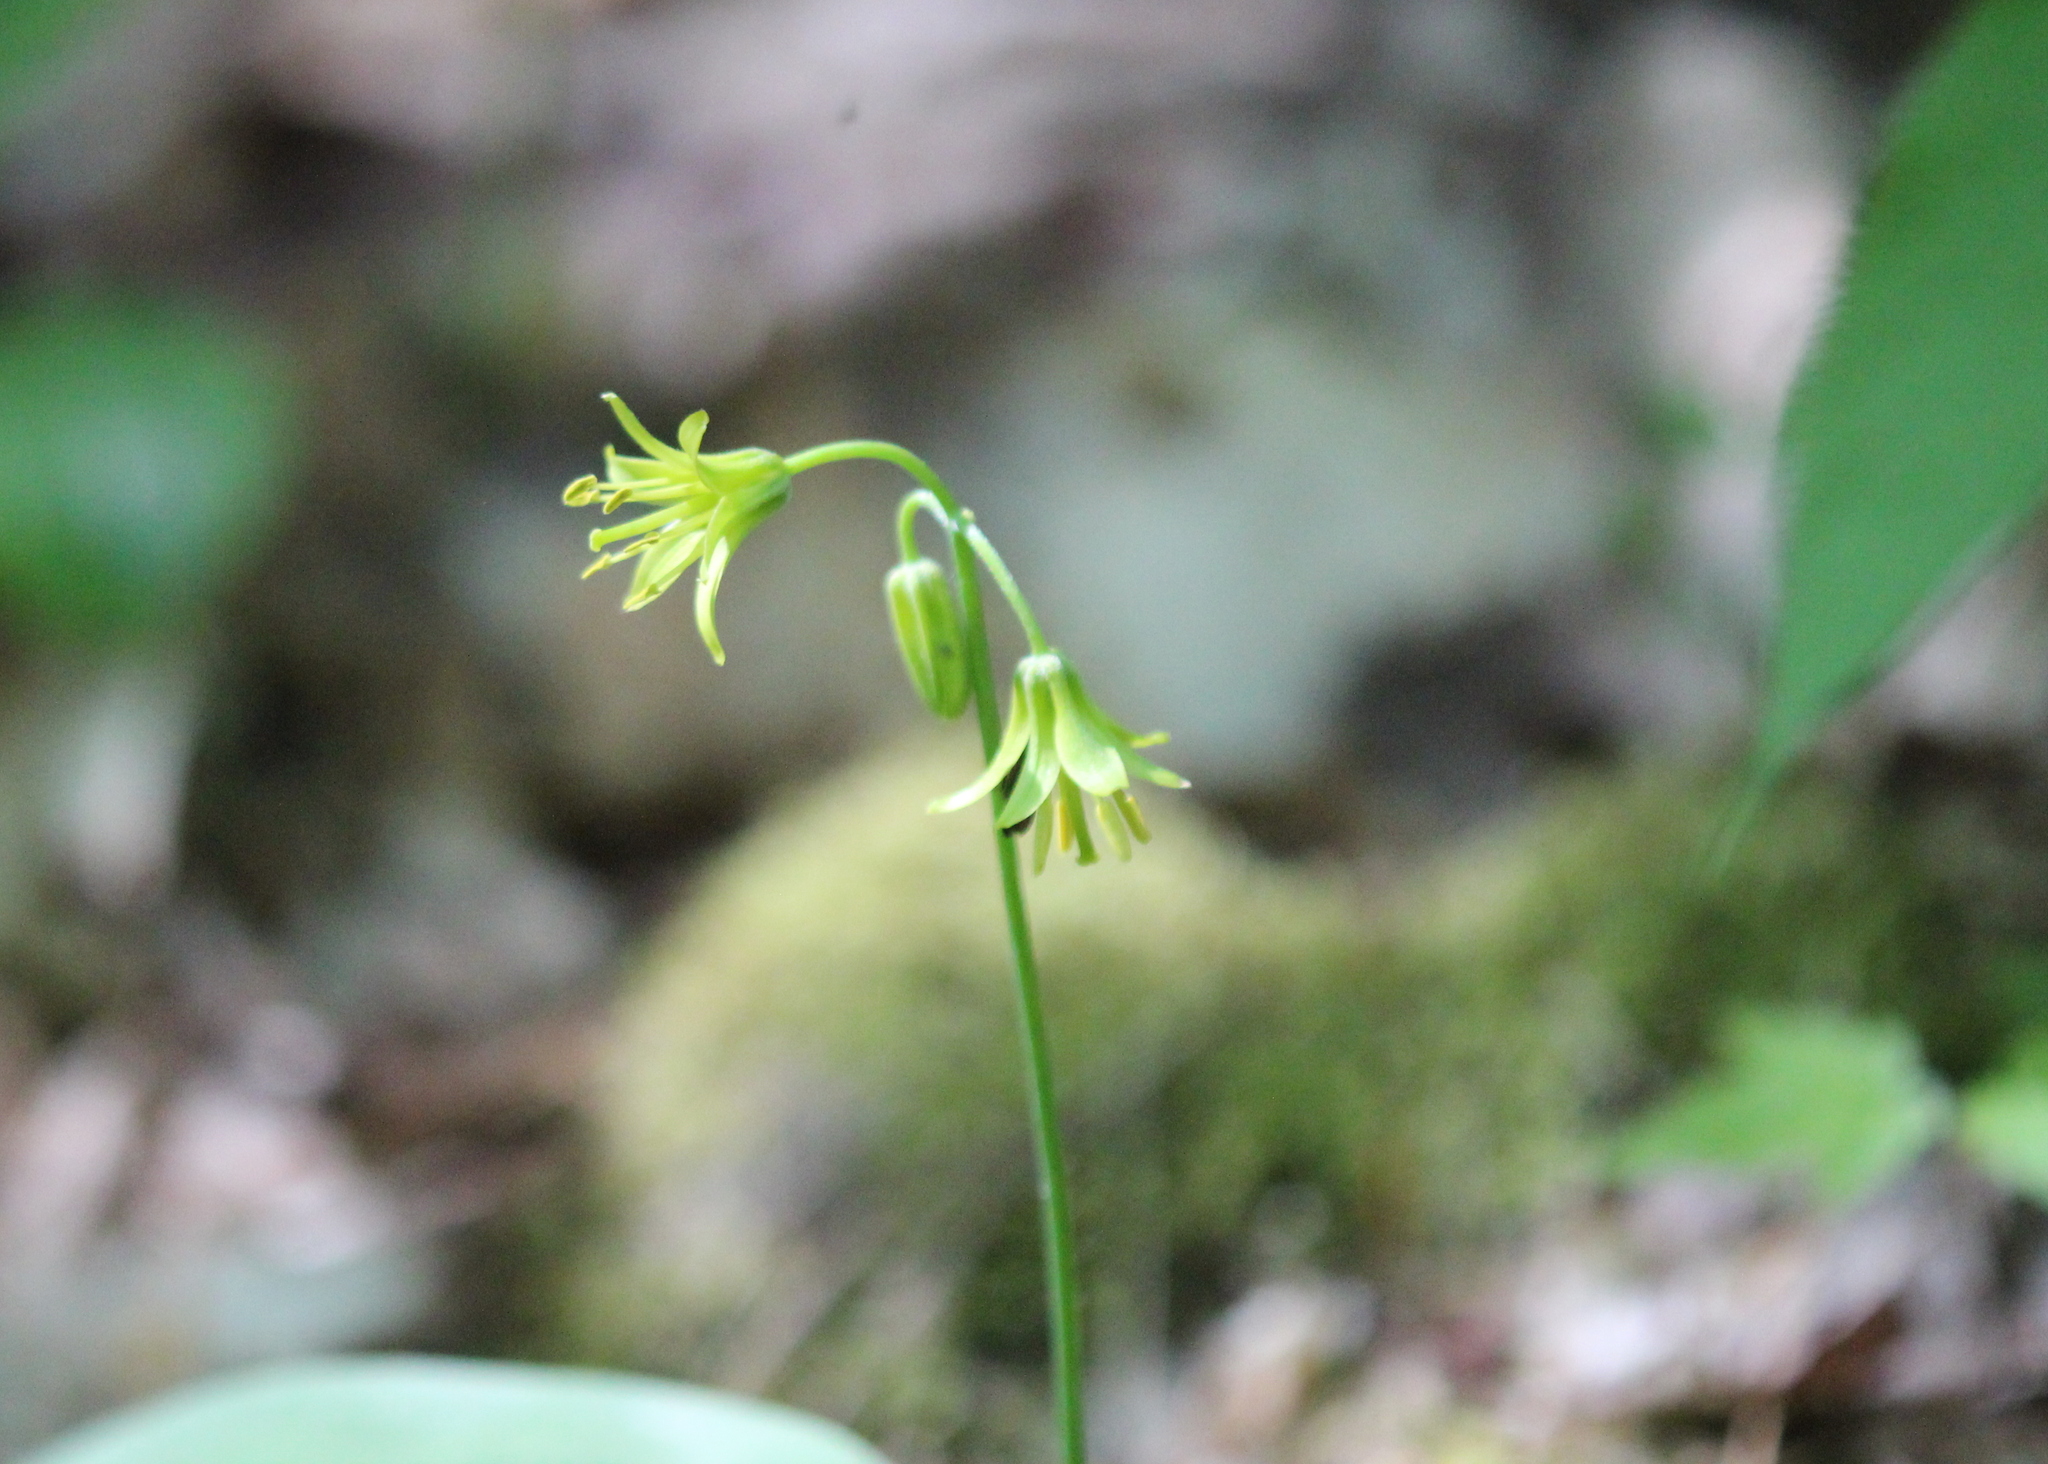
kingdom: Plantae
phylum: Tracheophyta
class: Liliopsida
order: Liliales
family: Liliaceae
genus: Clintonia
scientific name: Clintonia borealis
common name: Yellow clintonia
